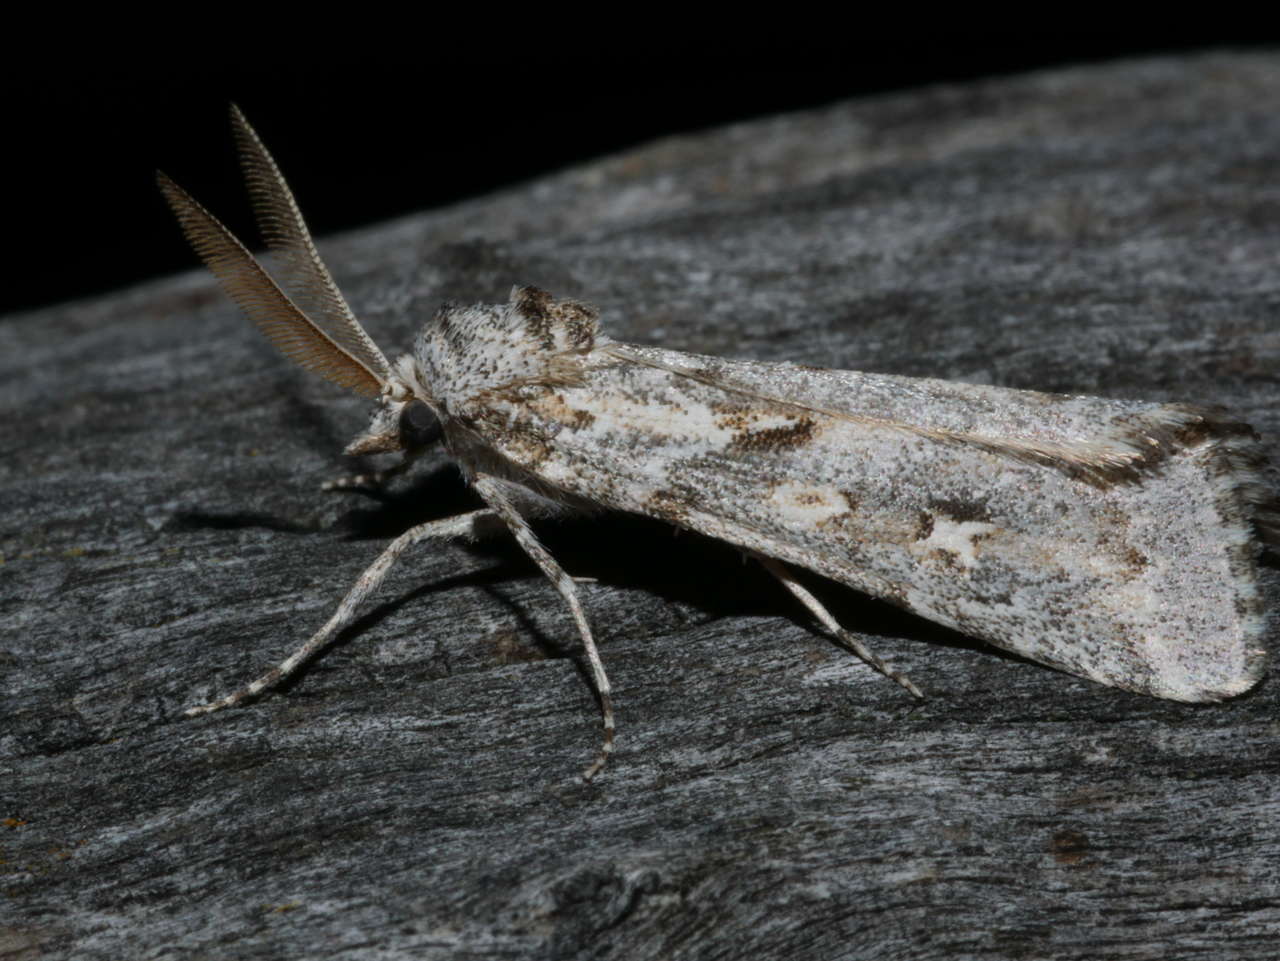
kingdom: Animalia
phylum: Arthropoda
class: Insecta
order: Lepidoptera
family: Noctuidae
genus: Eremochroa
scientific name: Eremochroa alphitias
